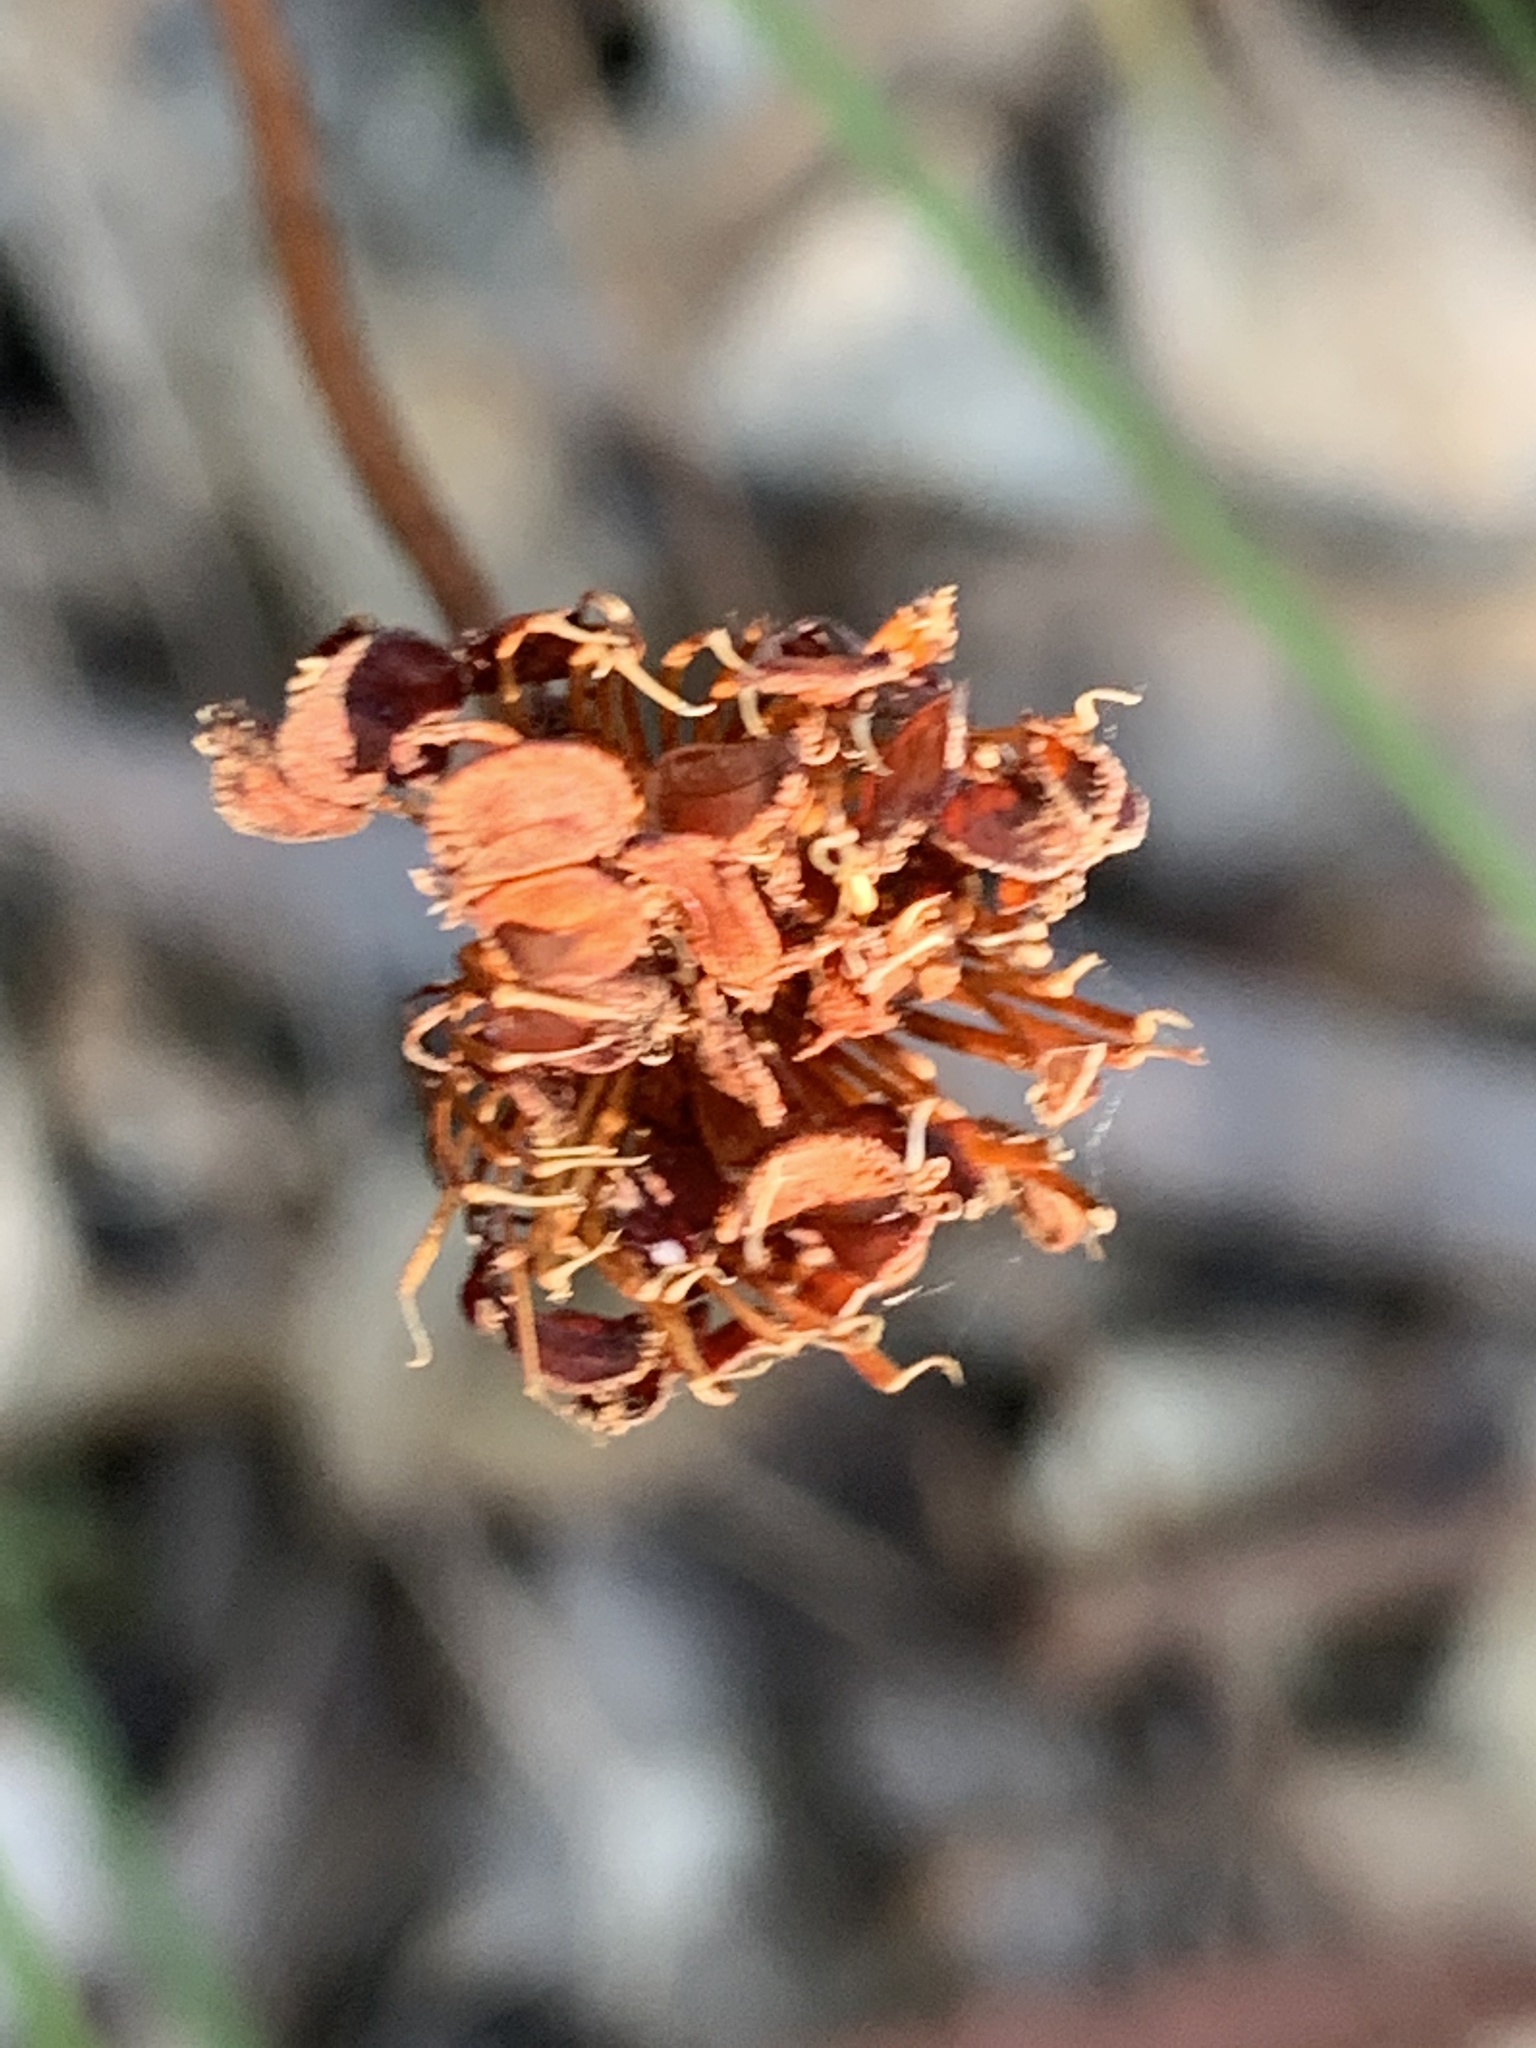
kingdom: Plantae
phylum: Tracheophyta
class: Magnoliopsida
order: Apiales
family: Araliaceae
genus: Trachymene
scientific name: Trachymene incisa
